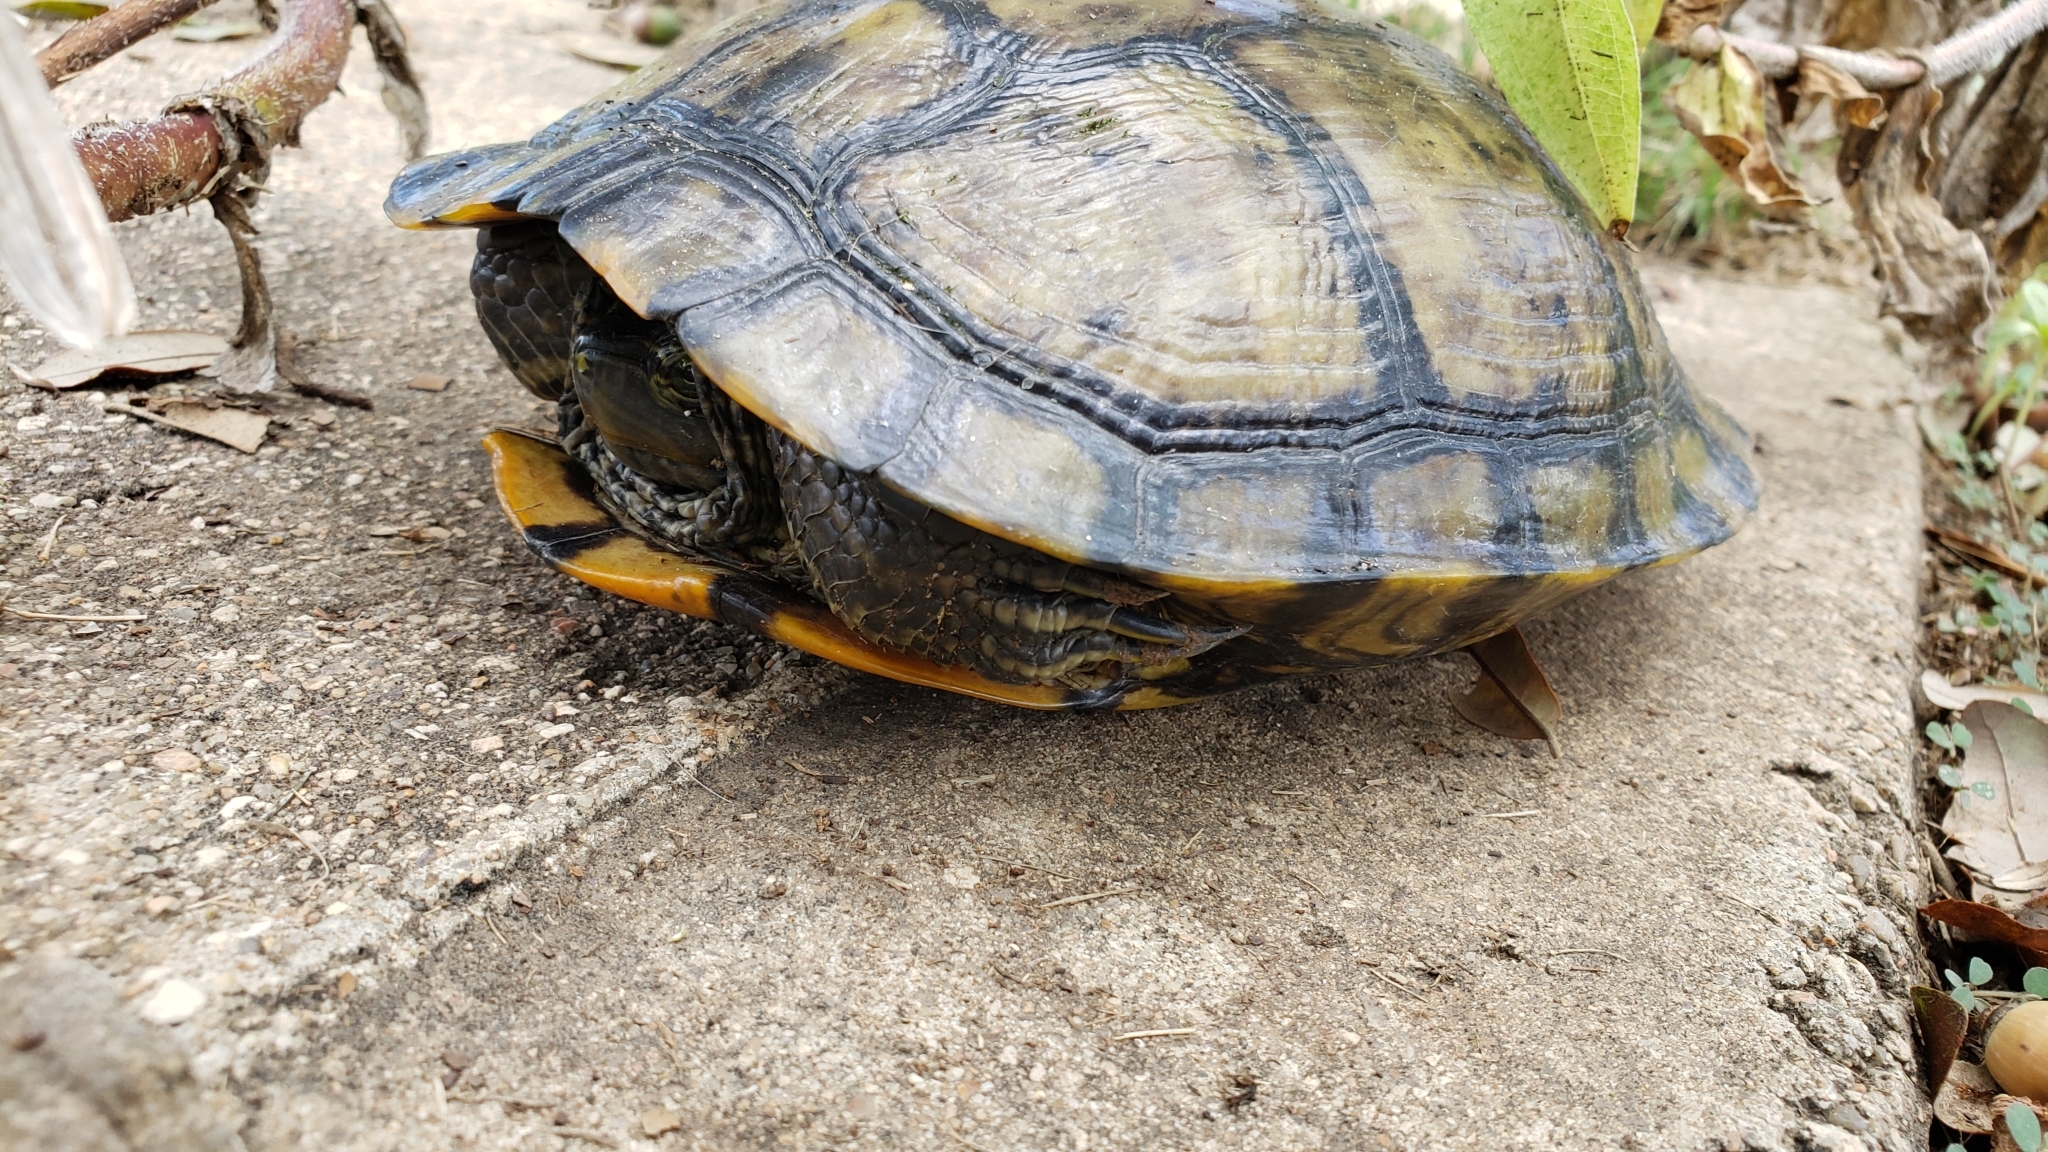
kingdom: Animalia
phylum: Chordata
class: Testudines
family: Emydidae
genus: Trachemys
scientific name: Trachemys scripta
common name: Slider
